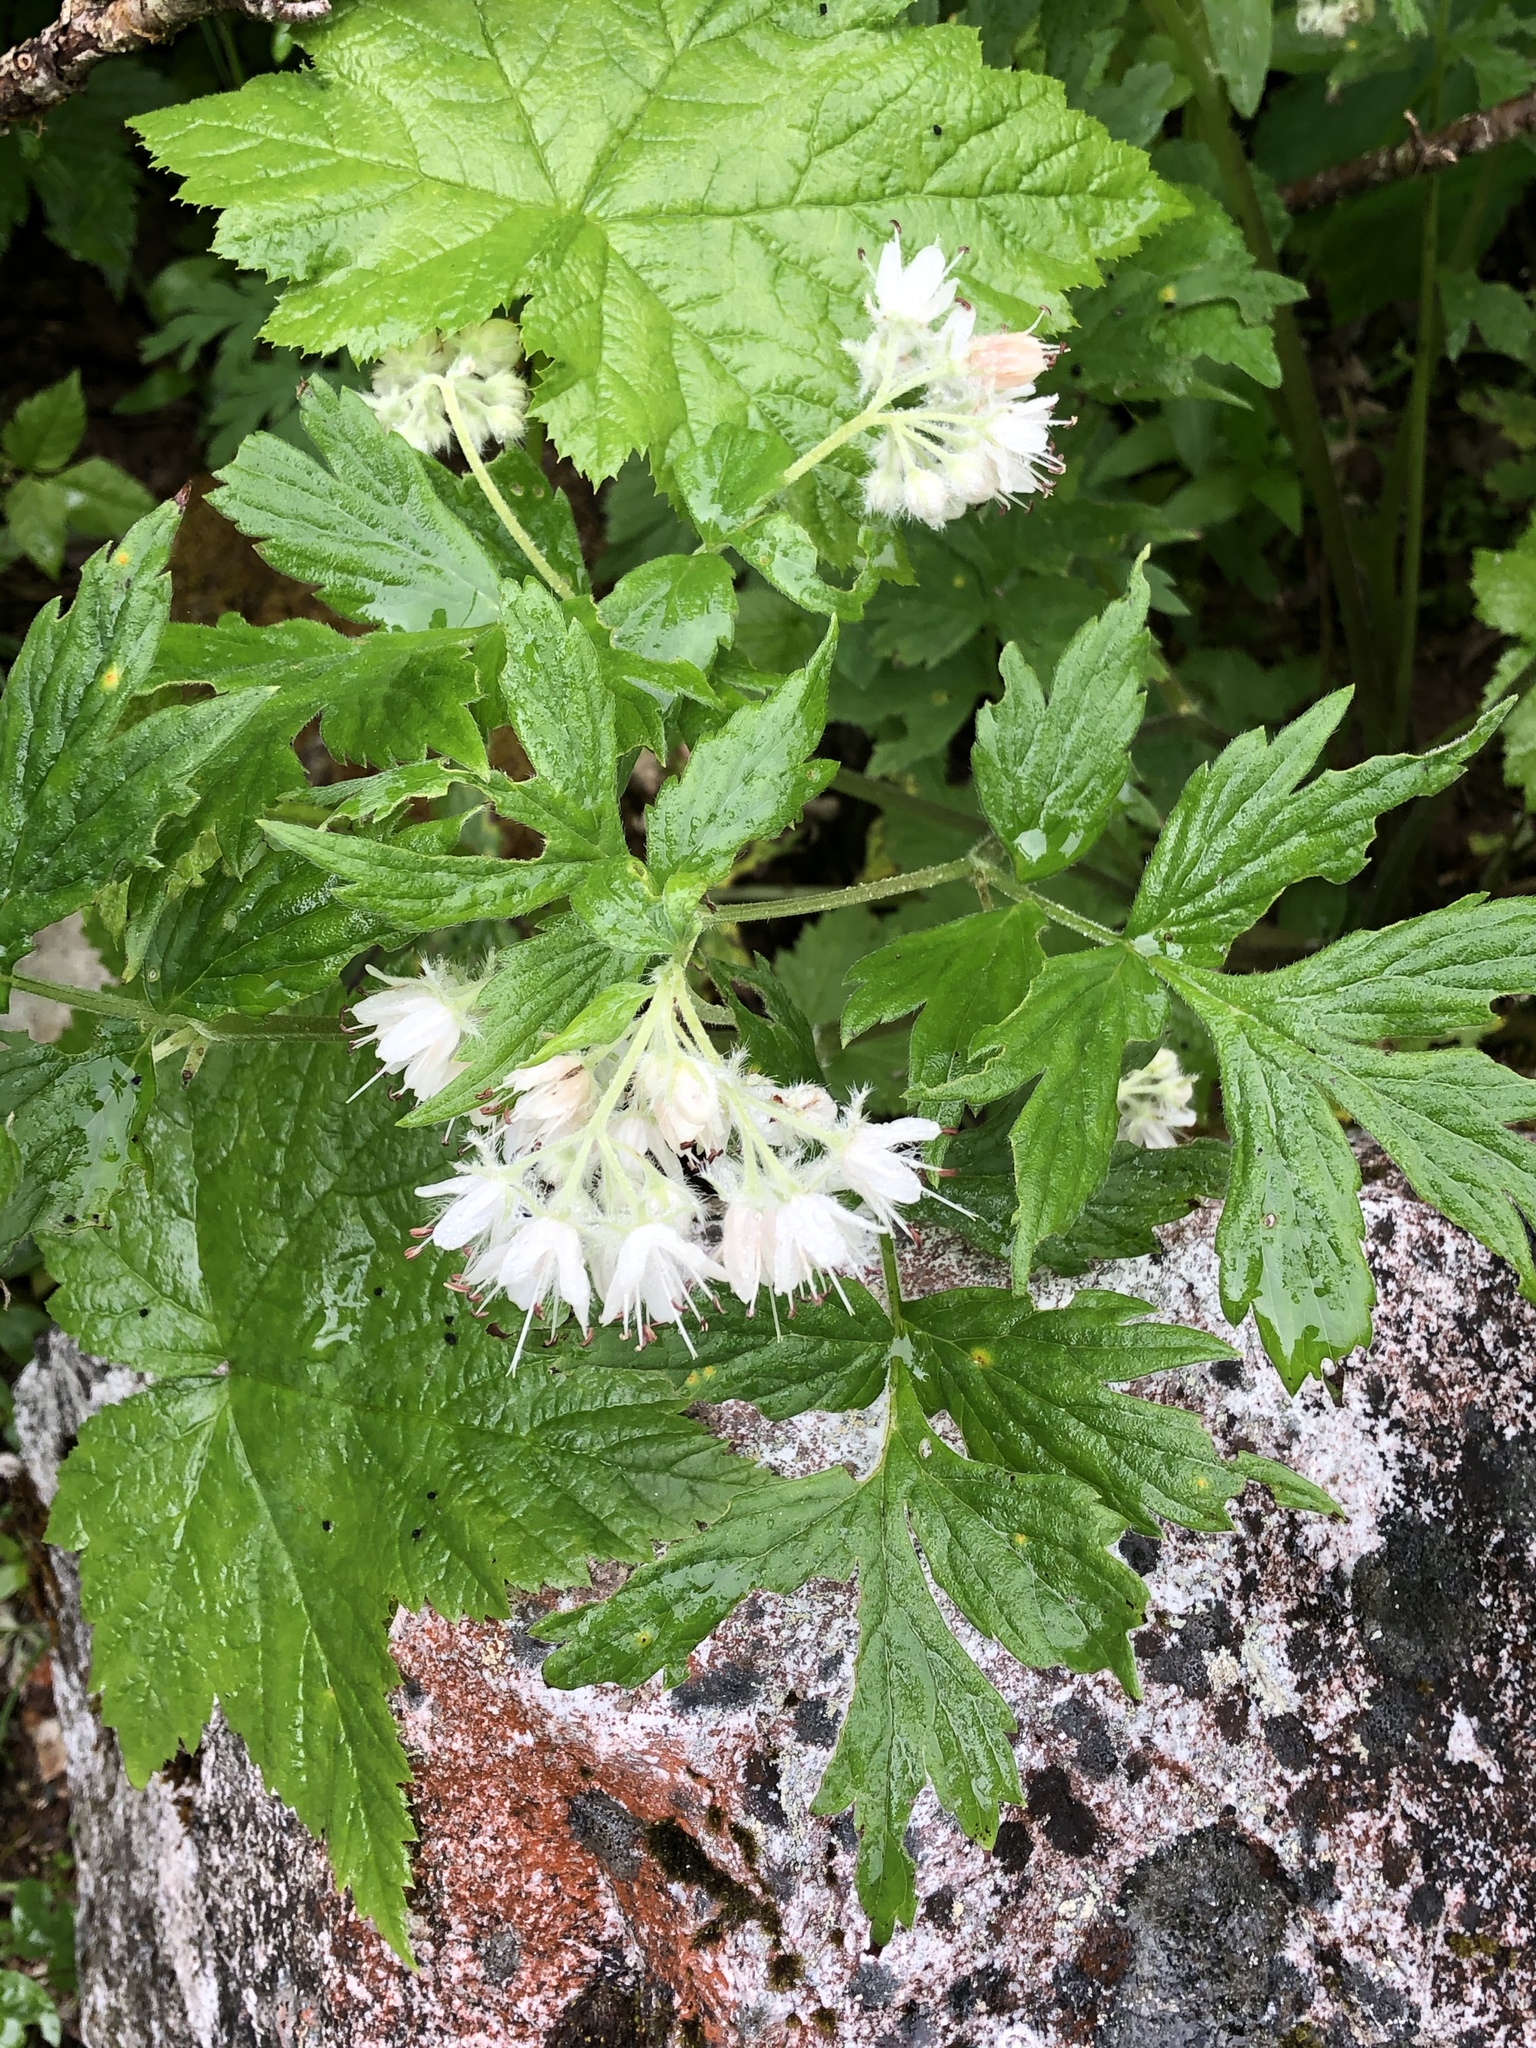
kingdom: Plantae
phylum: Tracheophyta
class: Magnoliopsida
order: Boraginales
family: Hydrophyllaceae
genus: Hydrophyllum
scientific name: Hydrophyllum fendleri
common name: Fendler's waterleaf
